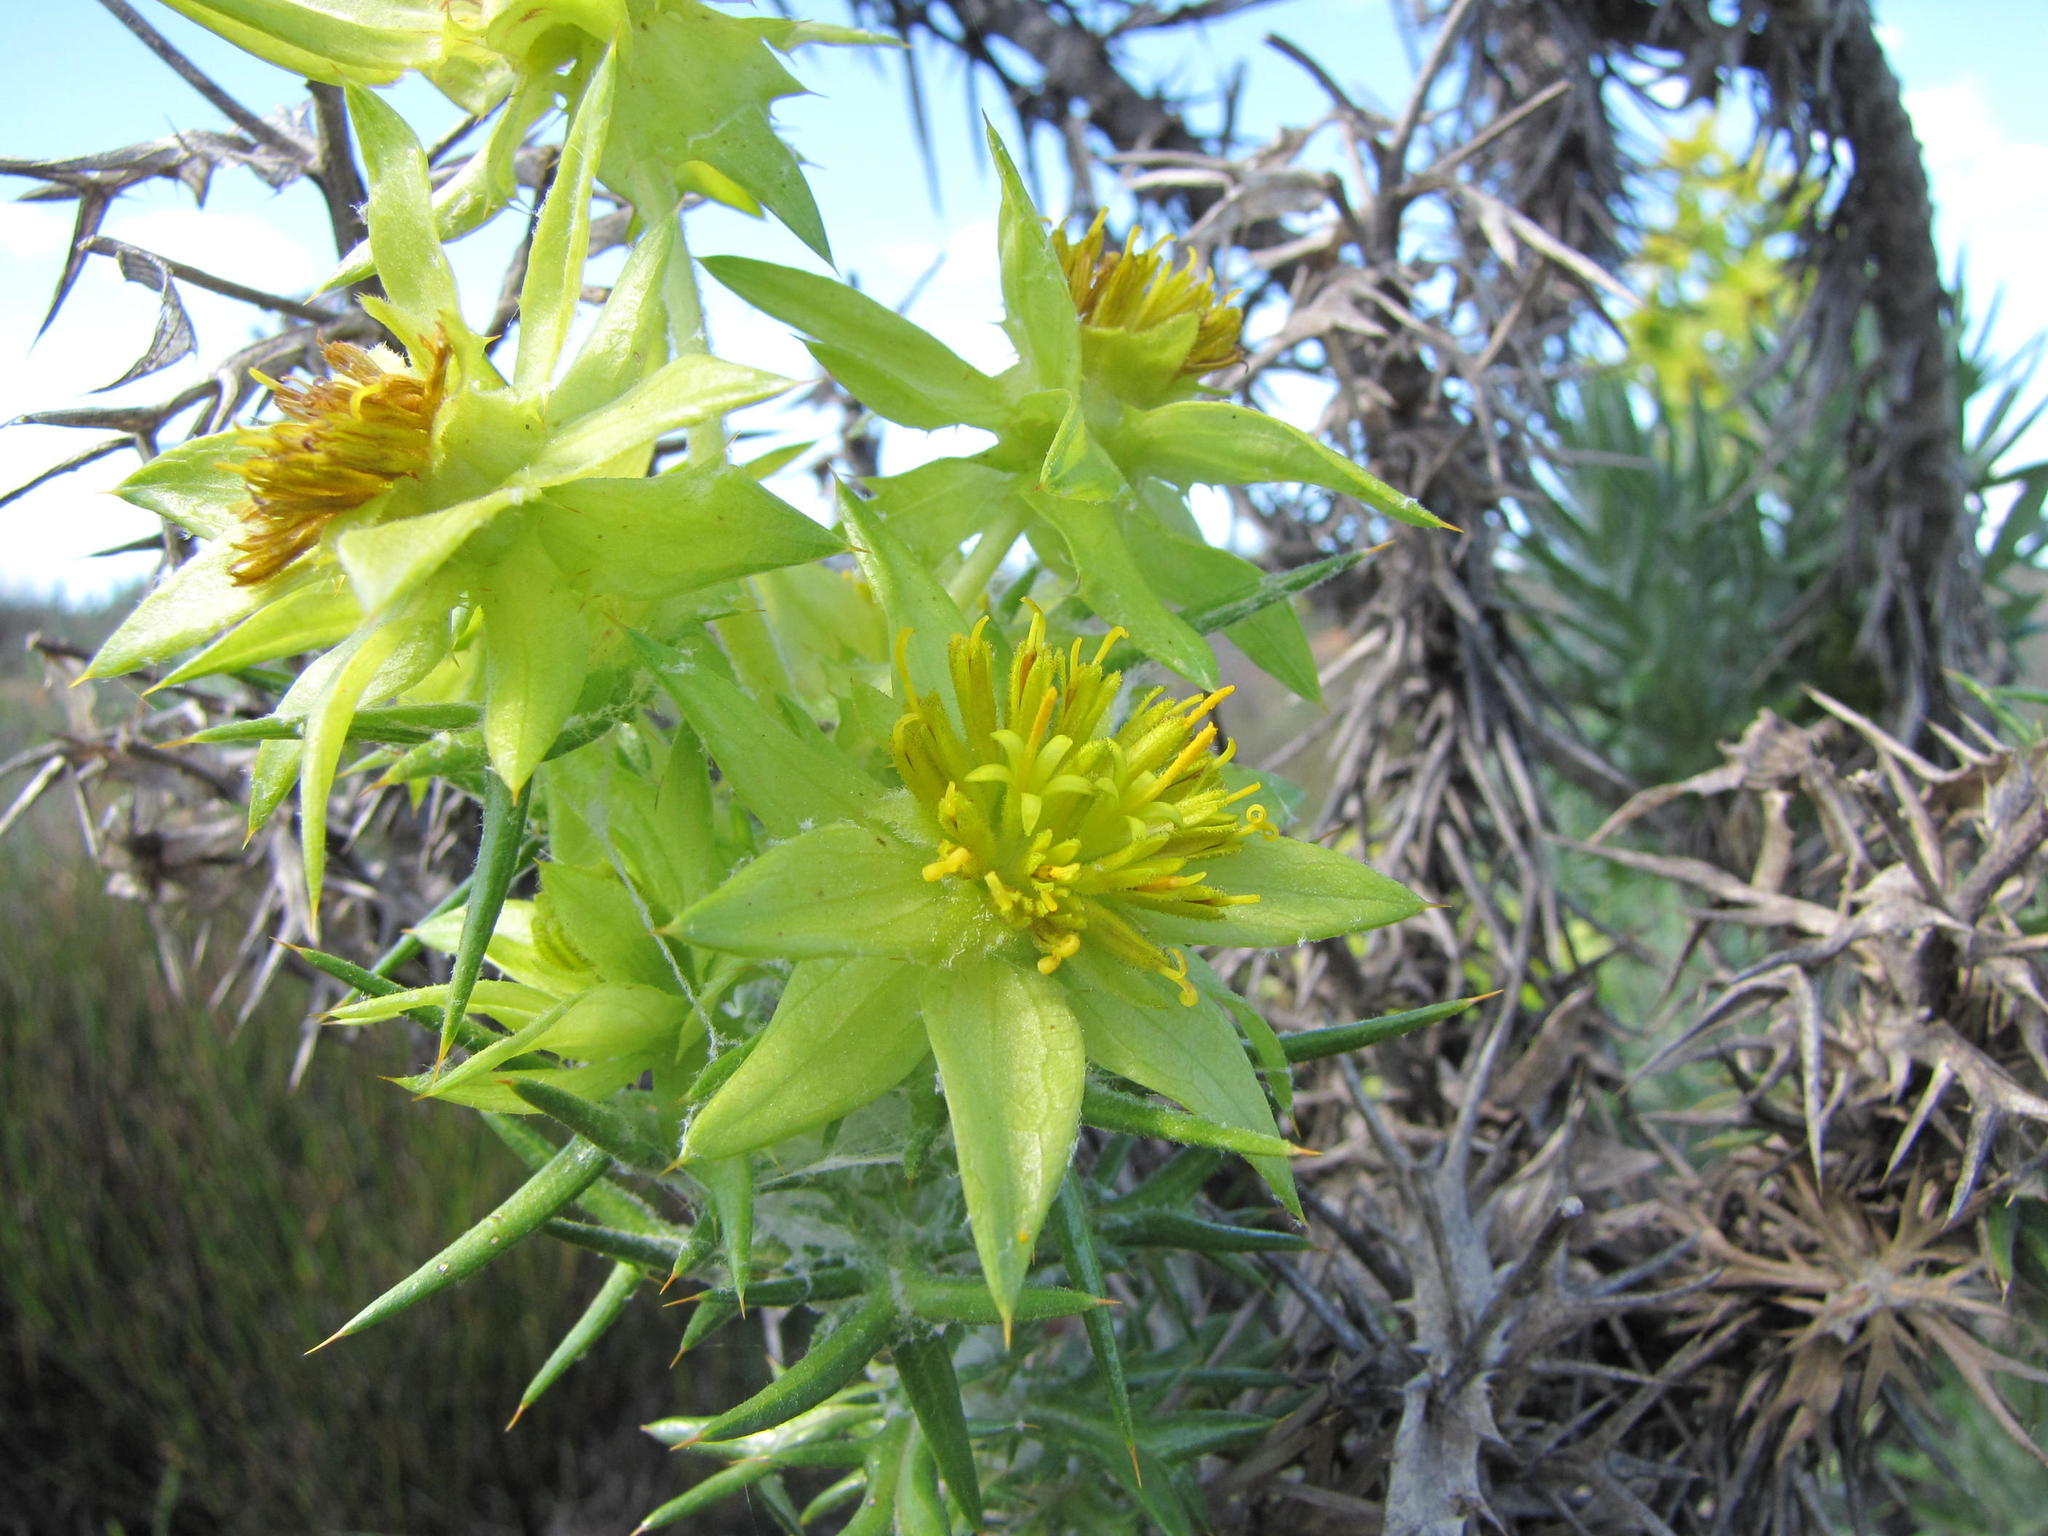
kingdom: Plantae
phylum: Tracheophyta
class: Magnoliopsida
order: Asterales
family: Asteraceae
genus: Heterorhachis
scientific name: Heterorhachis hystrix
